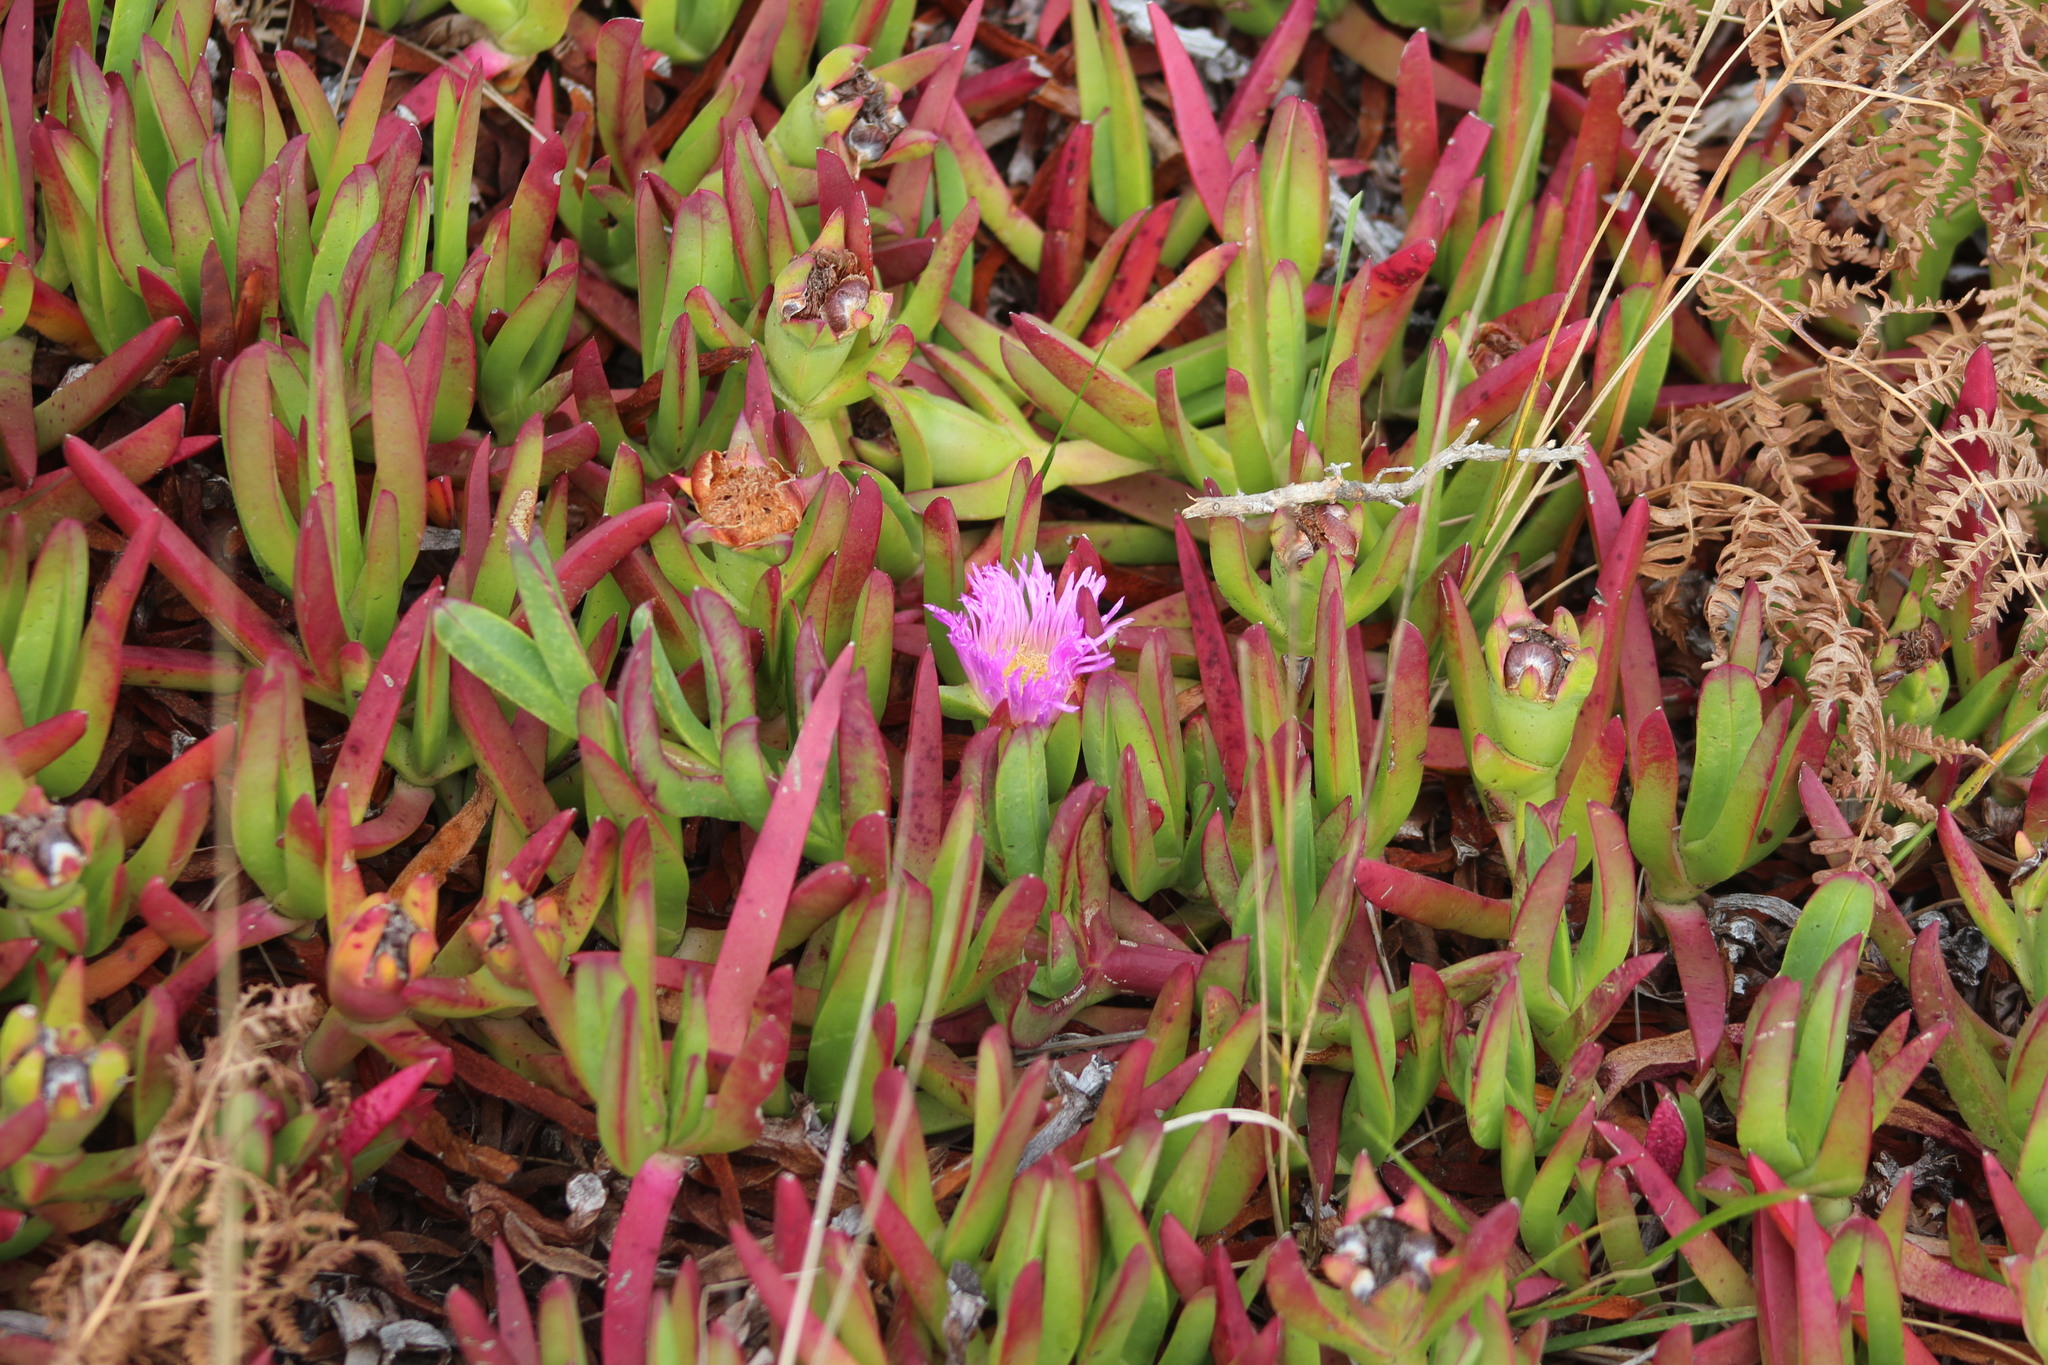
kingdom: Plantae
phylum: Tracheophyta
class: Magnoliopsida
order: Caryophyllales
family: Aizoaceae
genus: Carpobrotus
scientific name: Carpobrotus chilensis
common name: Sea fig
